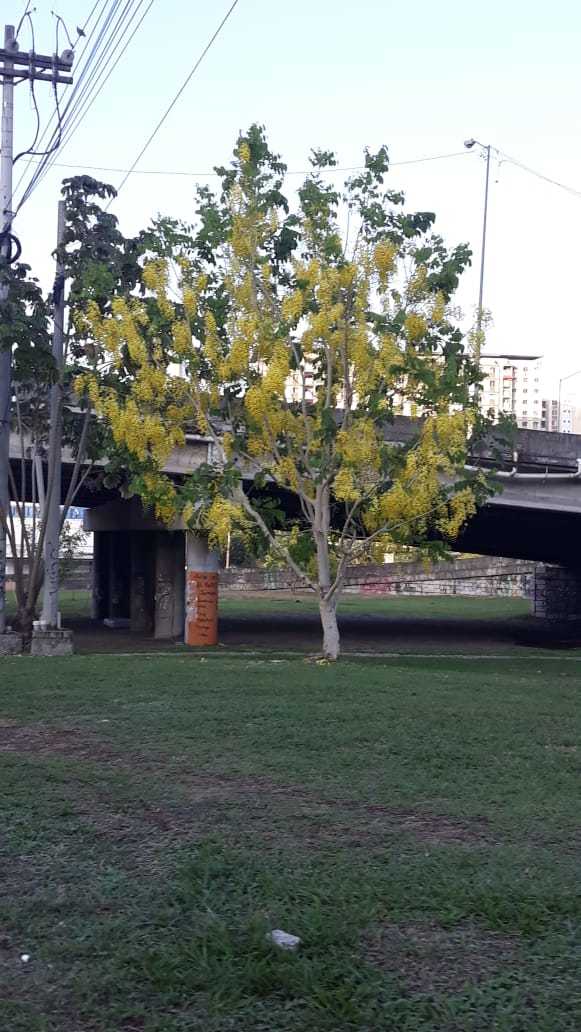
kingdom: Plantae
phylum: Tracheophyta
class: Magnoliopsida
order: Fabales
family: Fabaceae
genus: Cassia
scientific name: Cassia fistula
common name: Golden shower
